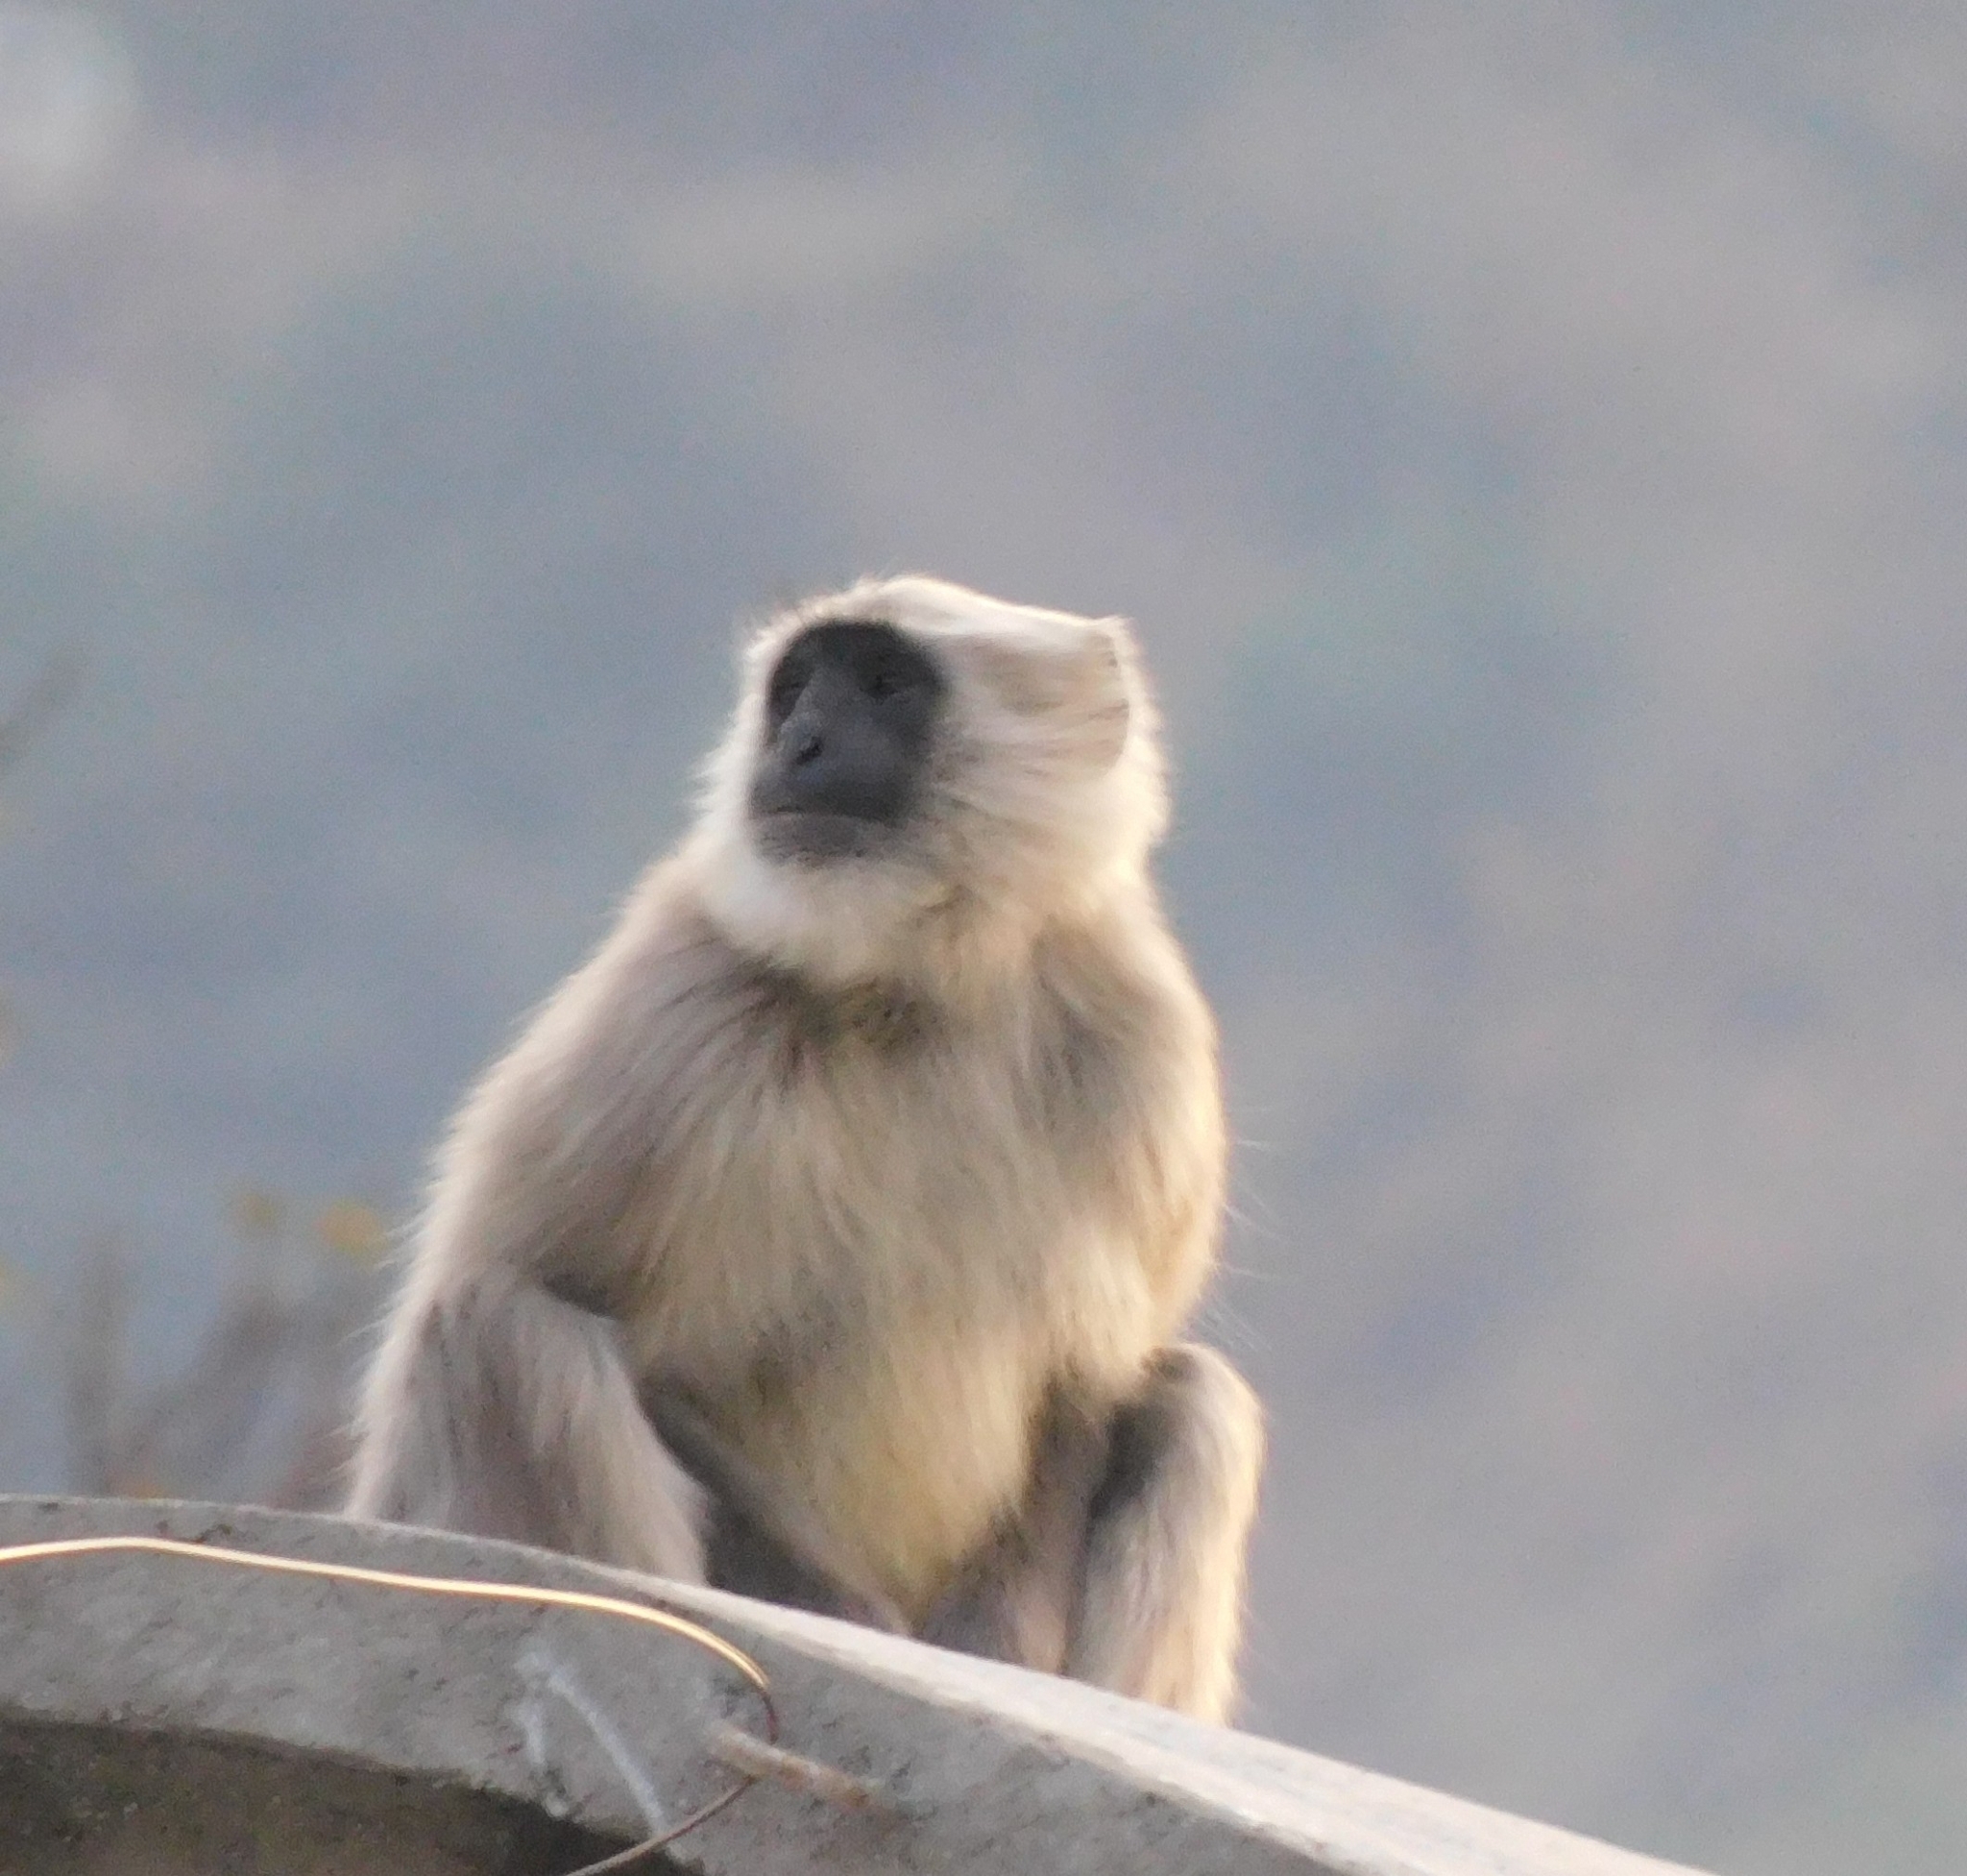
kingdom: Animalia
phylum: Chordata
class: Mammalia
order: Primates
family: Cercopithecidae
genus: Semnopithecus
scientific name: Semnopithecus schistaceus
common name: Nepal gray langur
